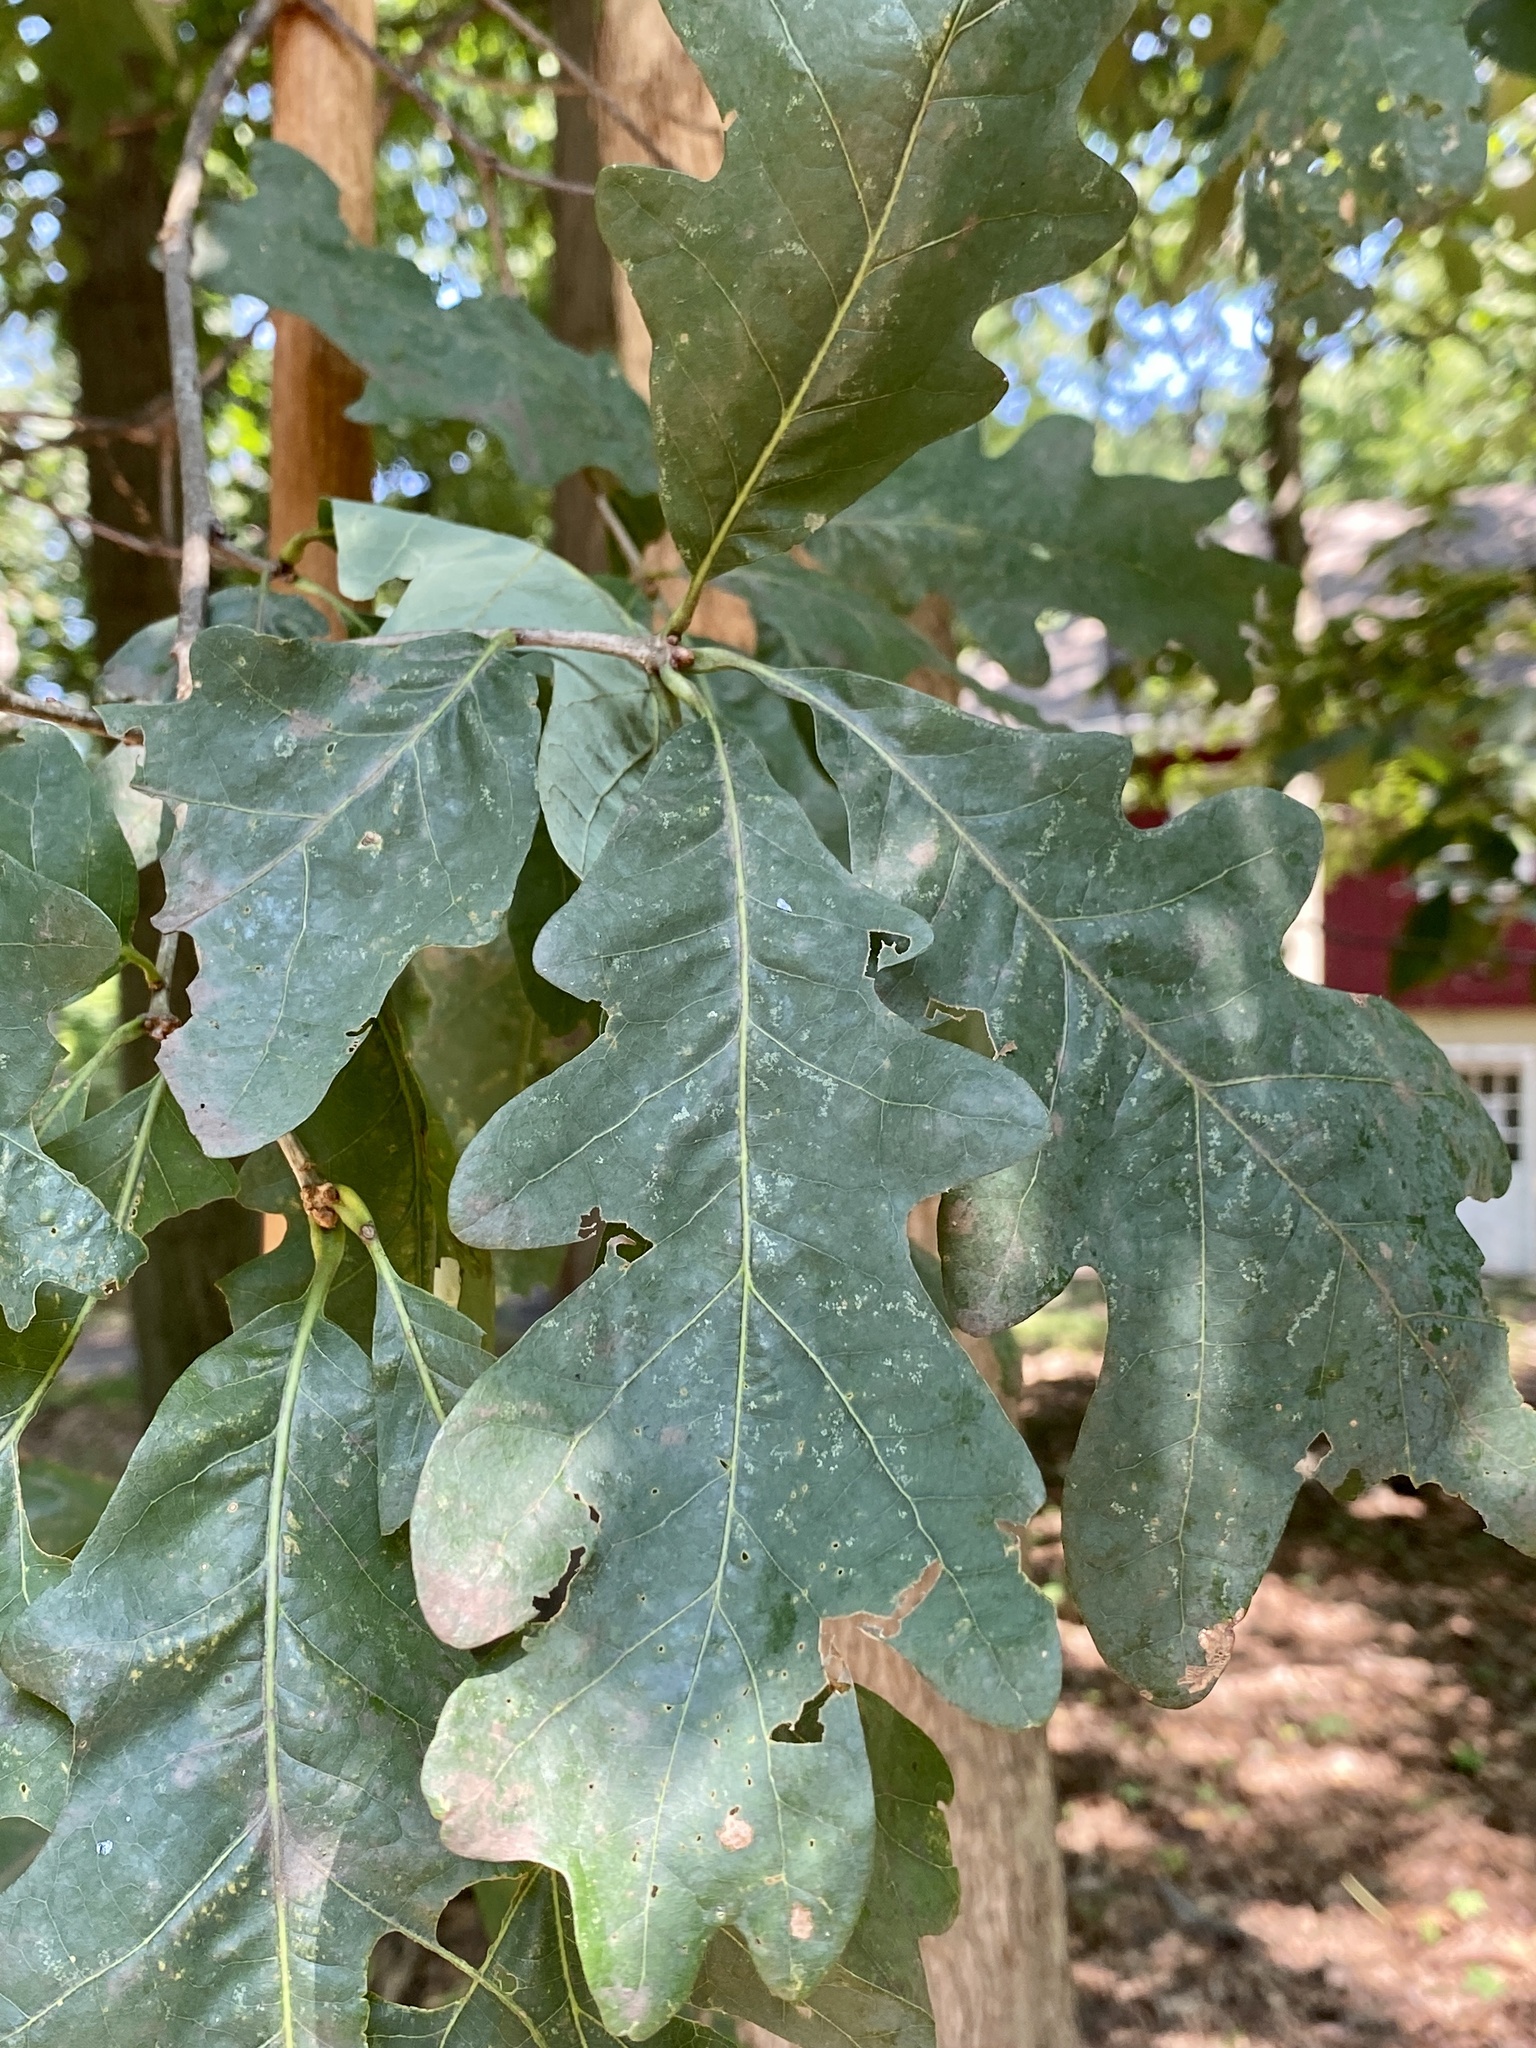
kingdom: Plantae
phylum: Tracheophyta
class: Magnoliopsida
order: Fagales
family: Fagaceae
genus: Quercus
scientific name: Quercus alba
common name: White oak
